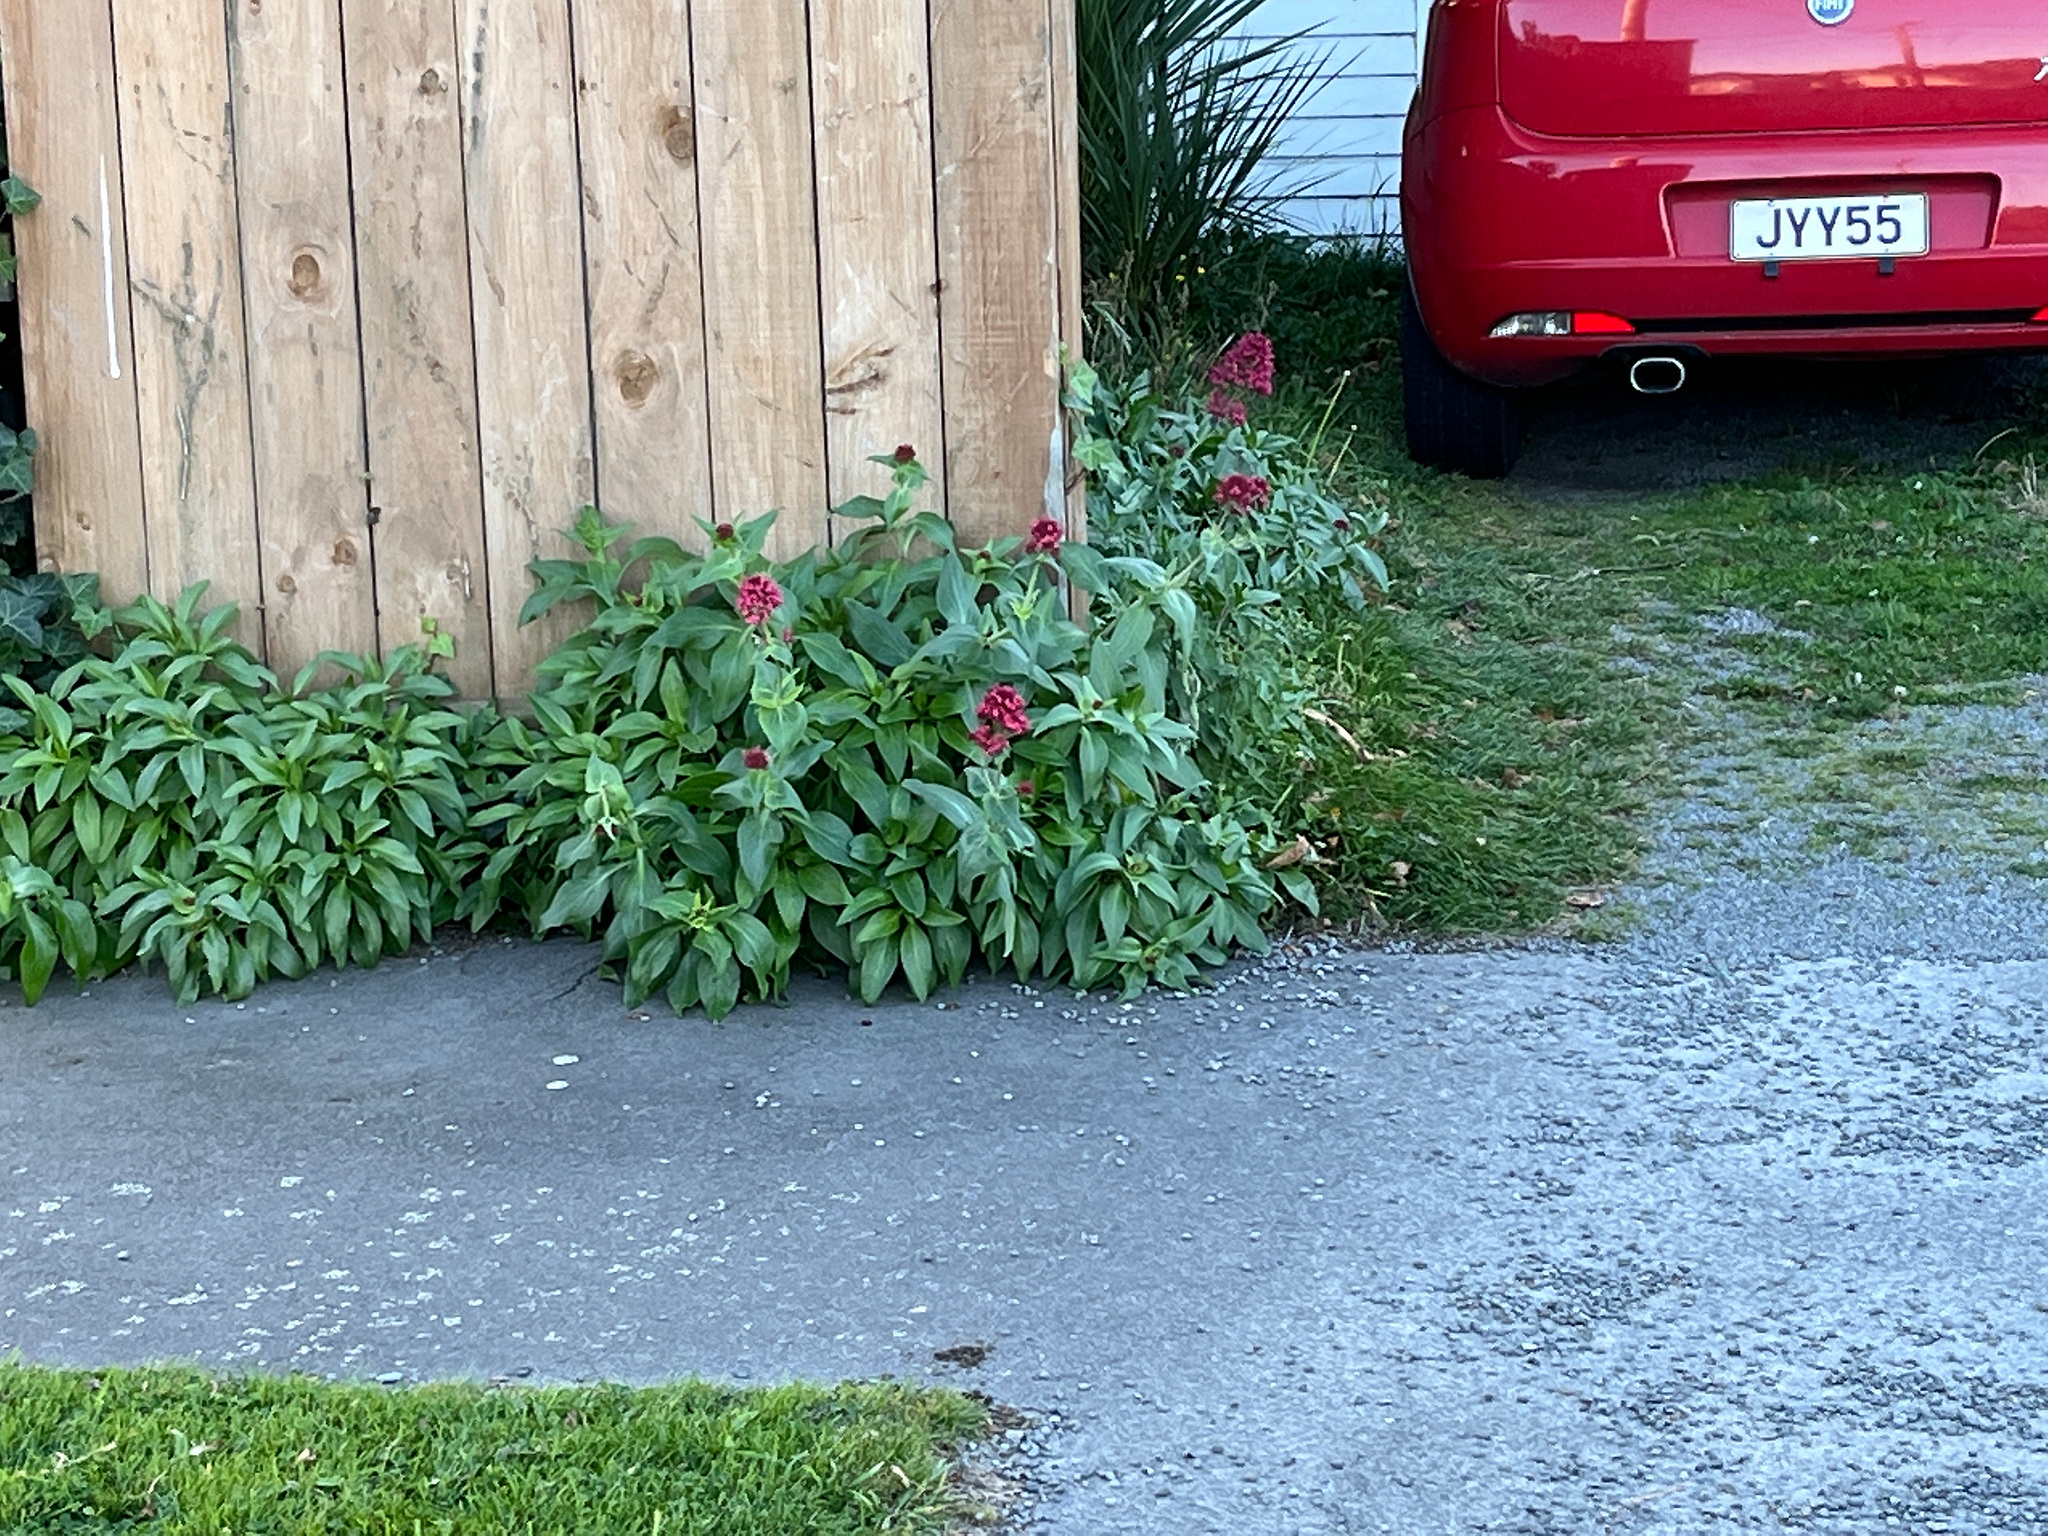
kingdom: Plantae
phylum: Tracheophyta
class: Magnoliopsida
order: Dipsacales
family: Caprifoliaceae
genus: Centranthus
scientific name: Centranthus ruber
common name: Red valerian
